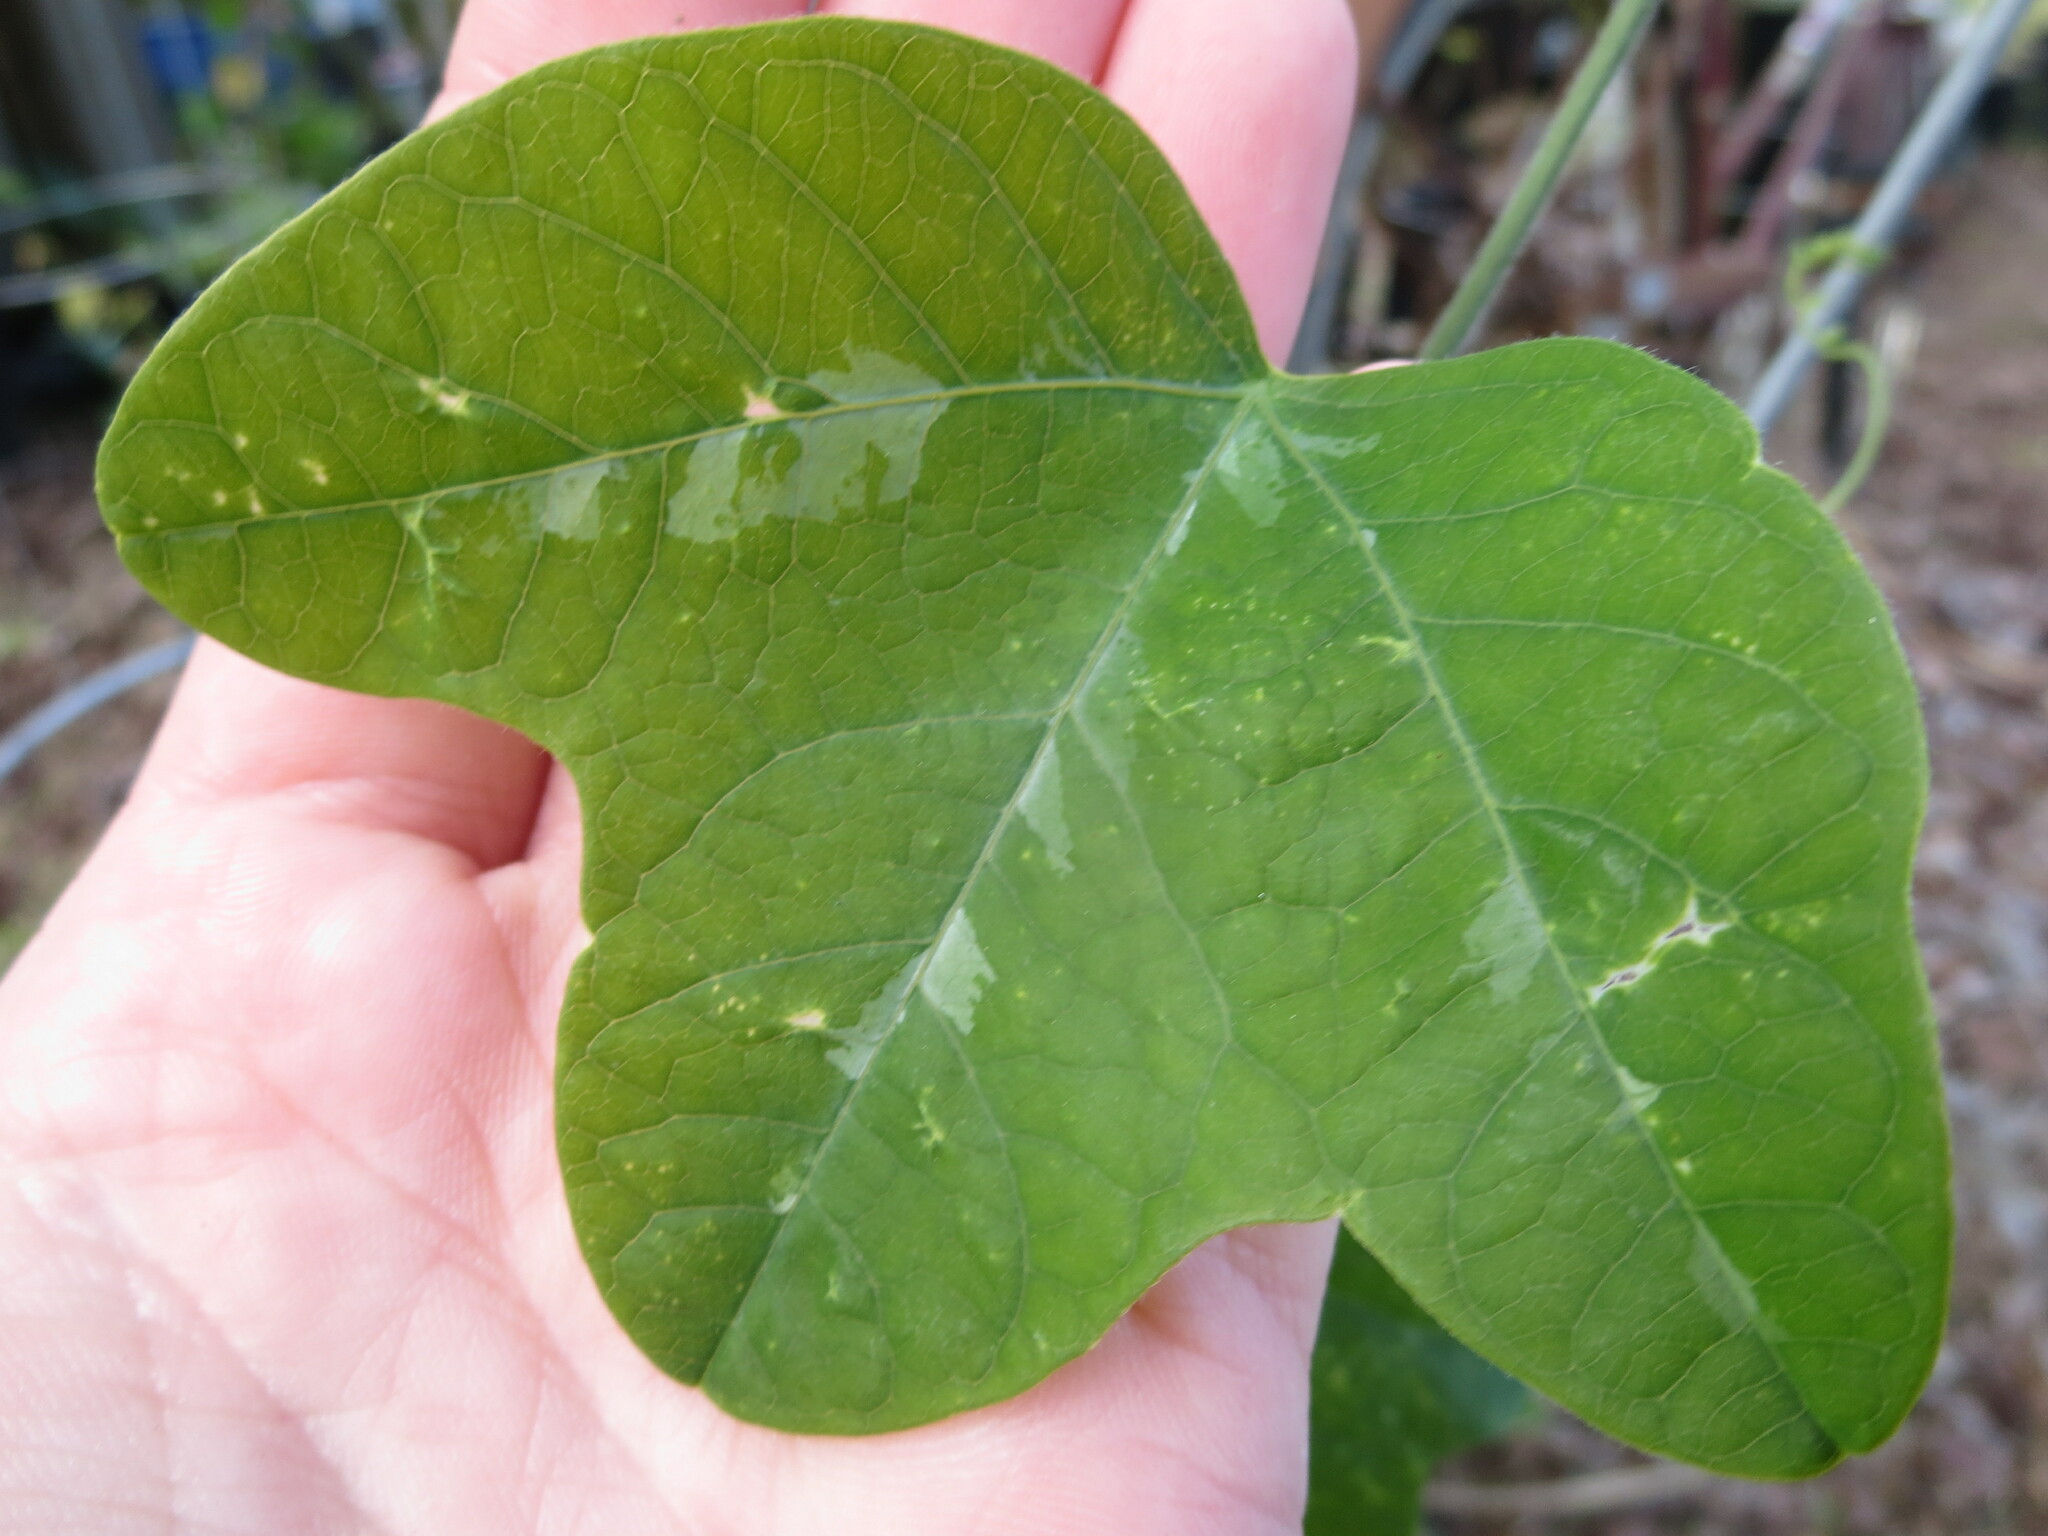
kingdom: Plantae
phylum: Tracheophyta
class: Magnoliopsida
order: Malpighiales
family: Passifloraceae
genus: Passiflora
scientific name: Passiflora lutea
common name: Yellow passionflower
